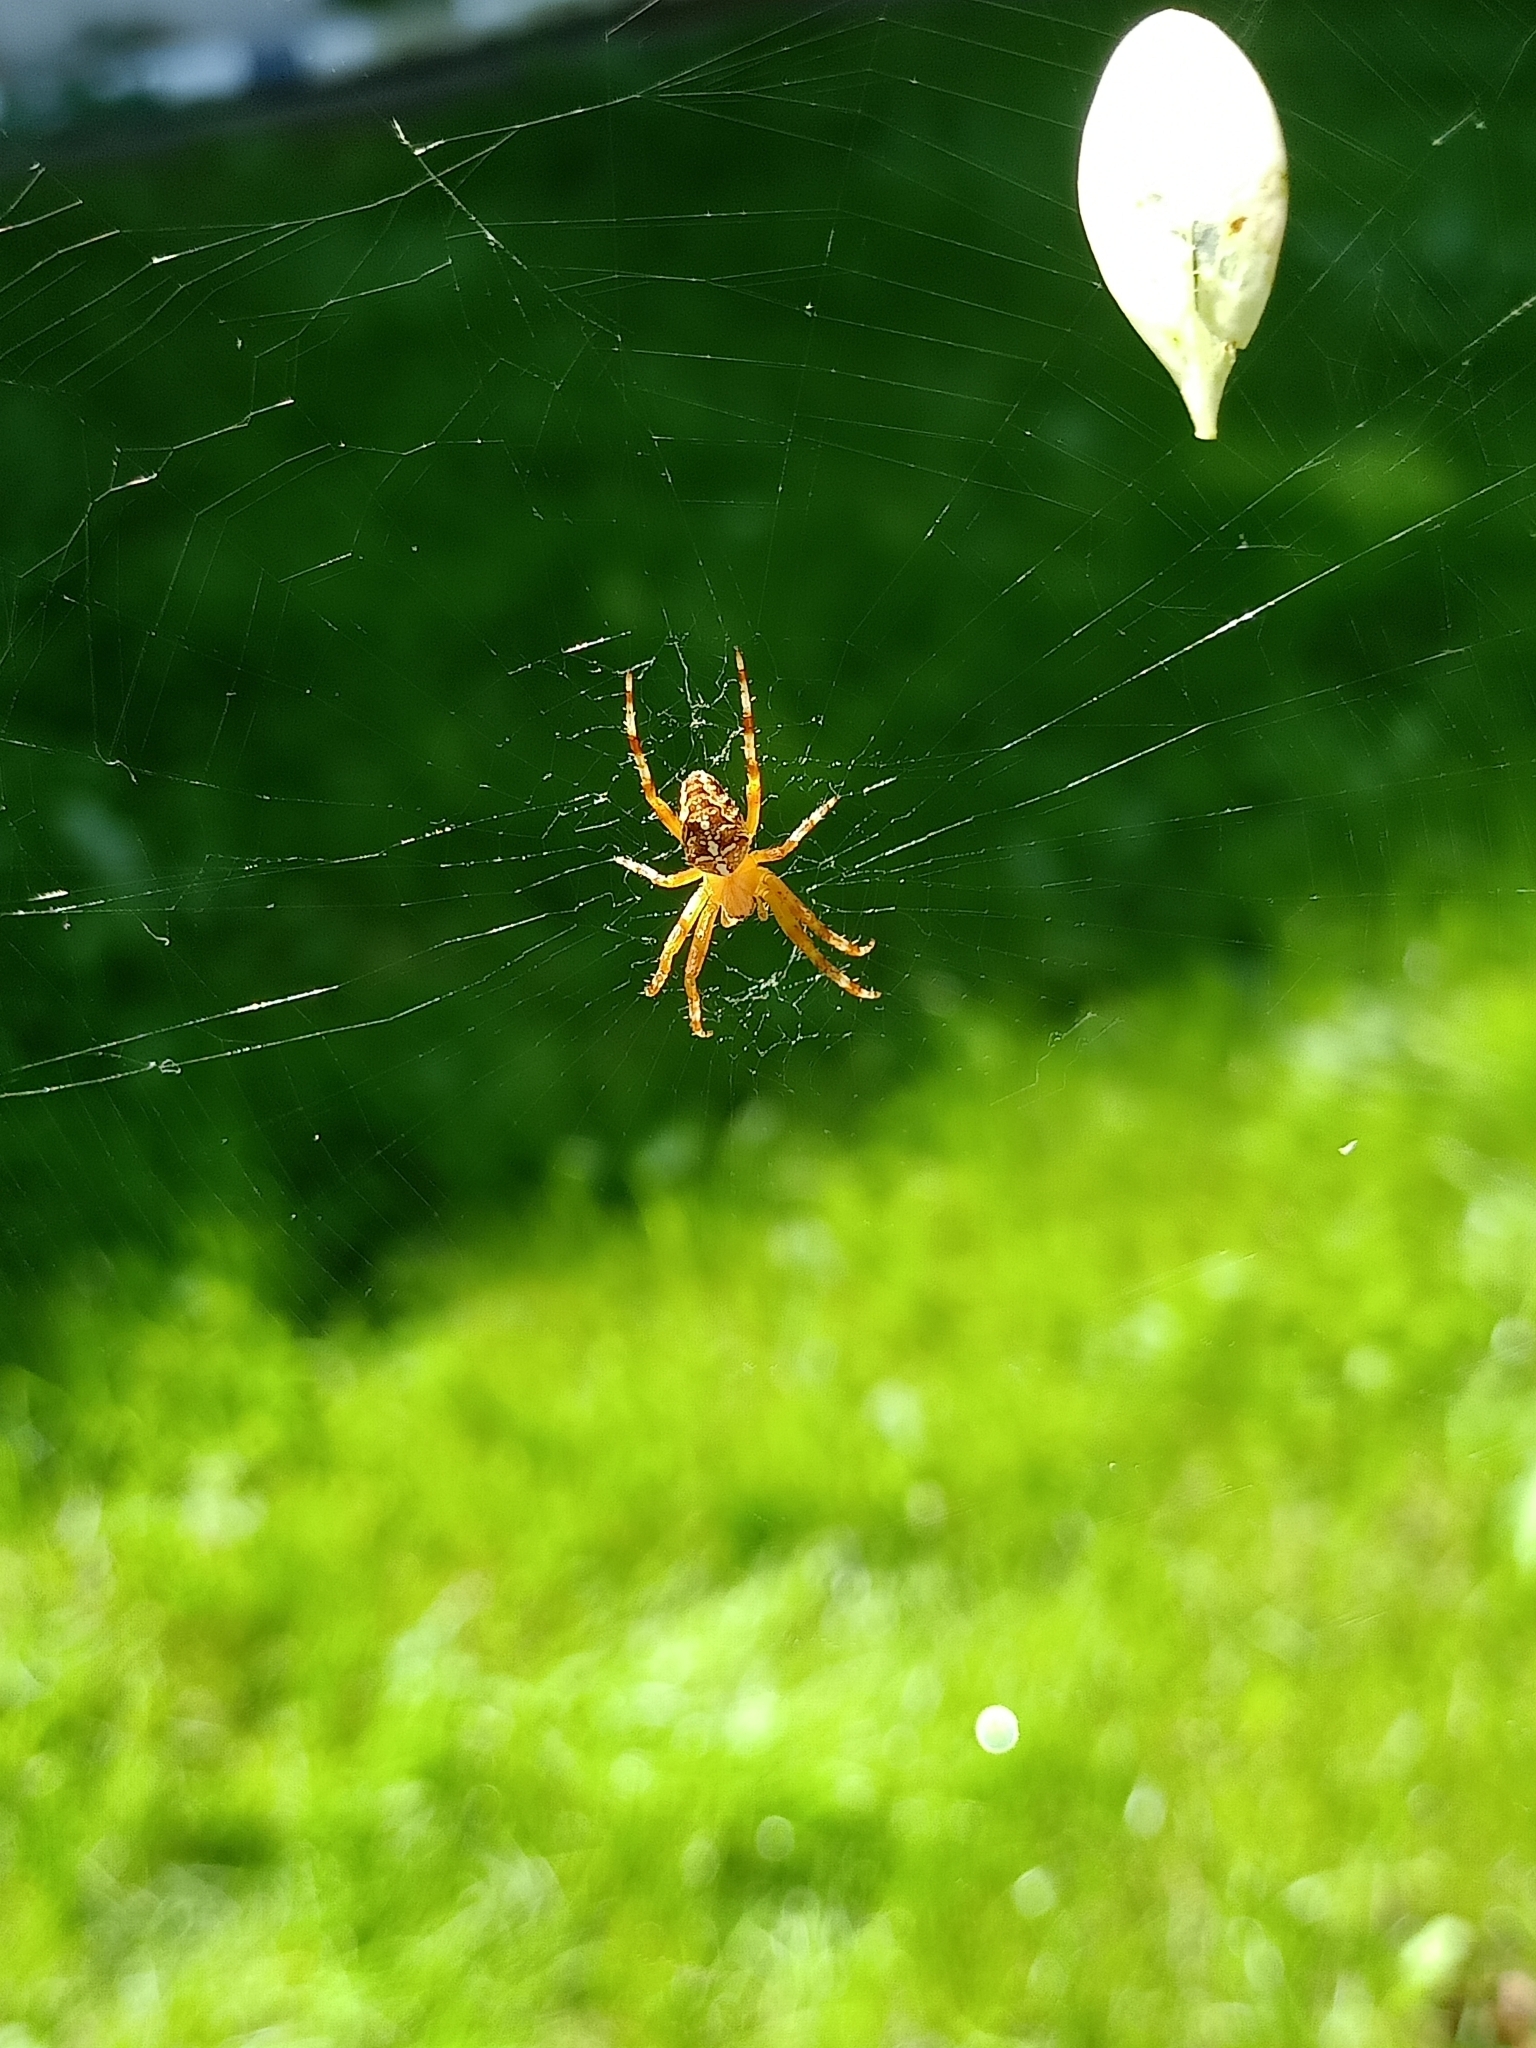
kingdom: Animalia
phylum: Arthropoda
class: Arachnida
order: Araneae
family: Araneidae
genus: Araneus
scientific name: Araneus diadematus
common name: Cross orbweaver
